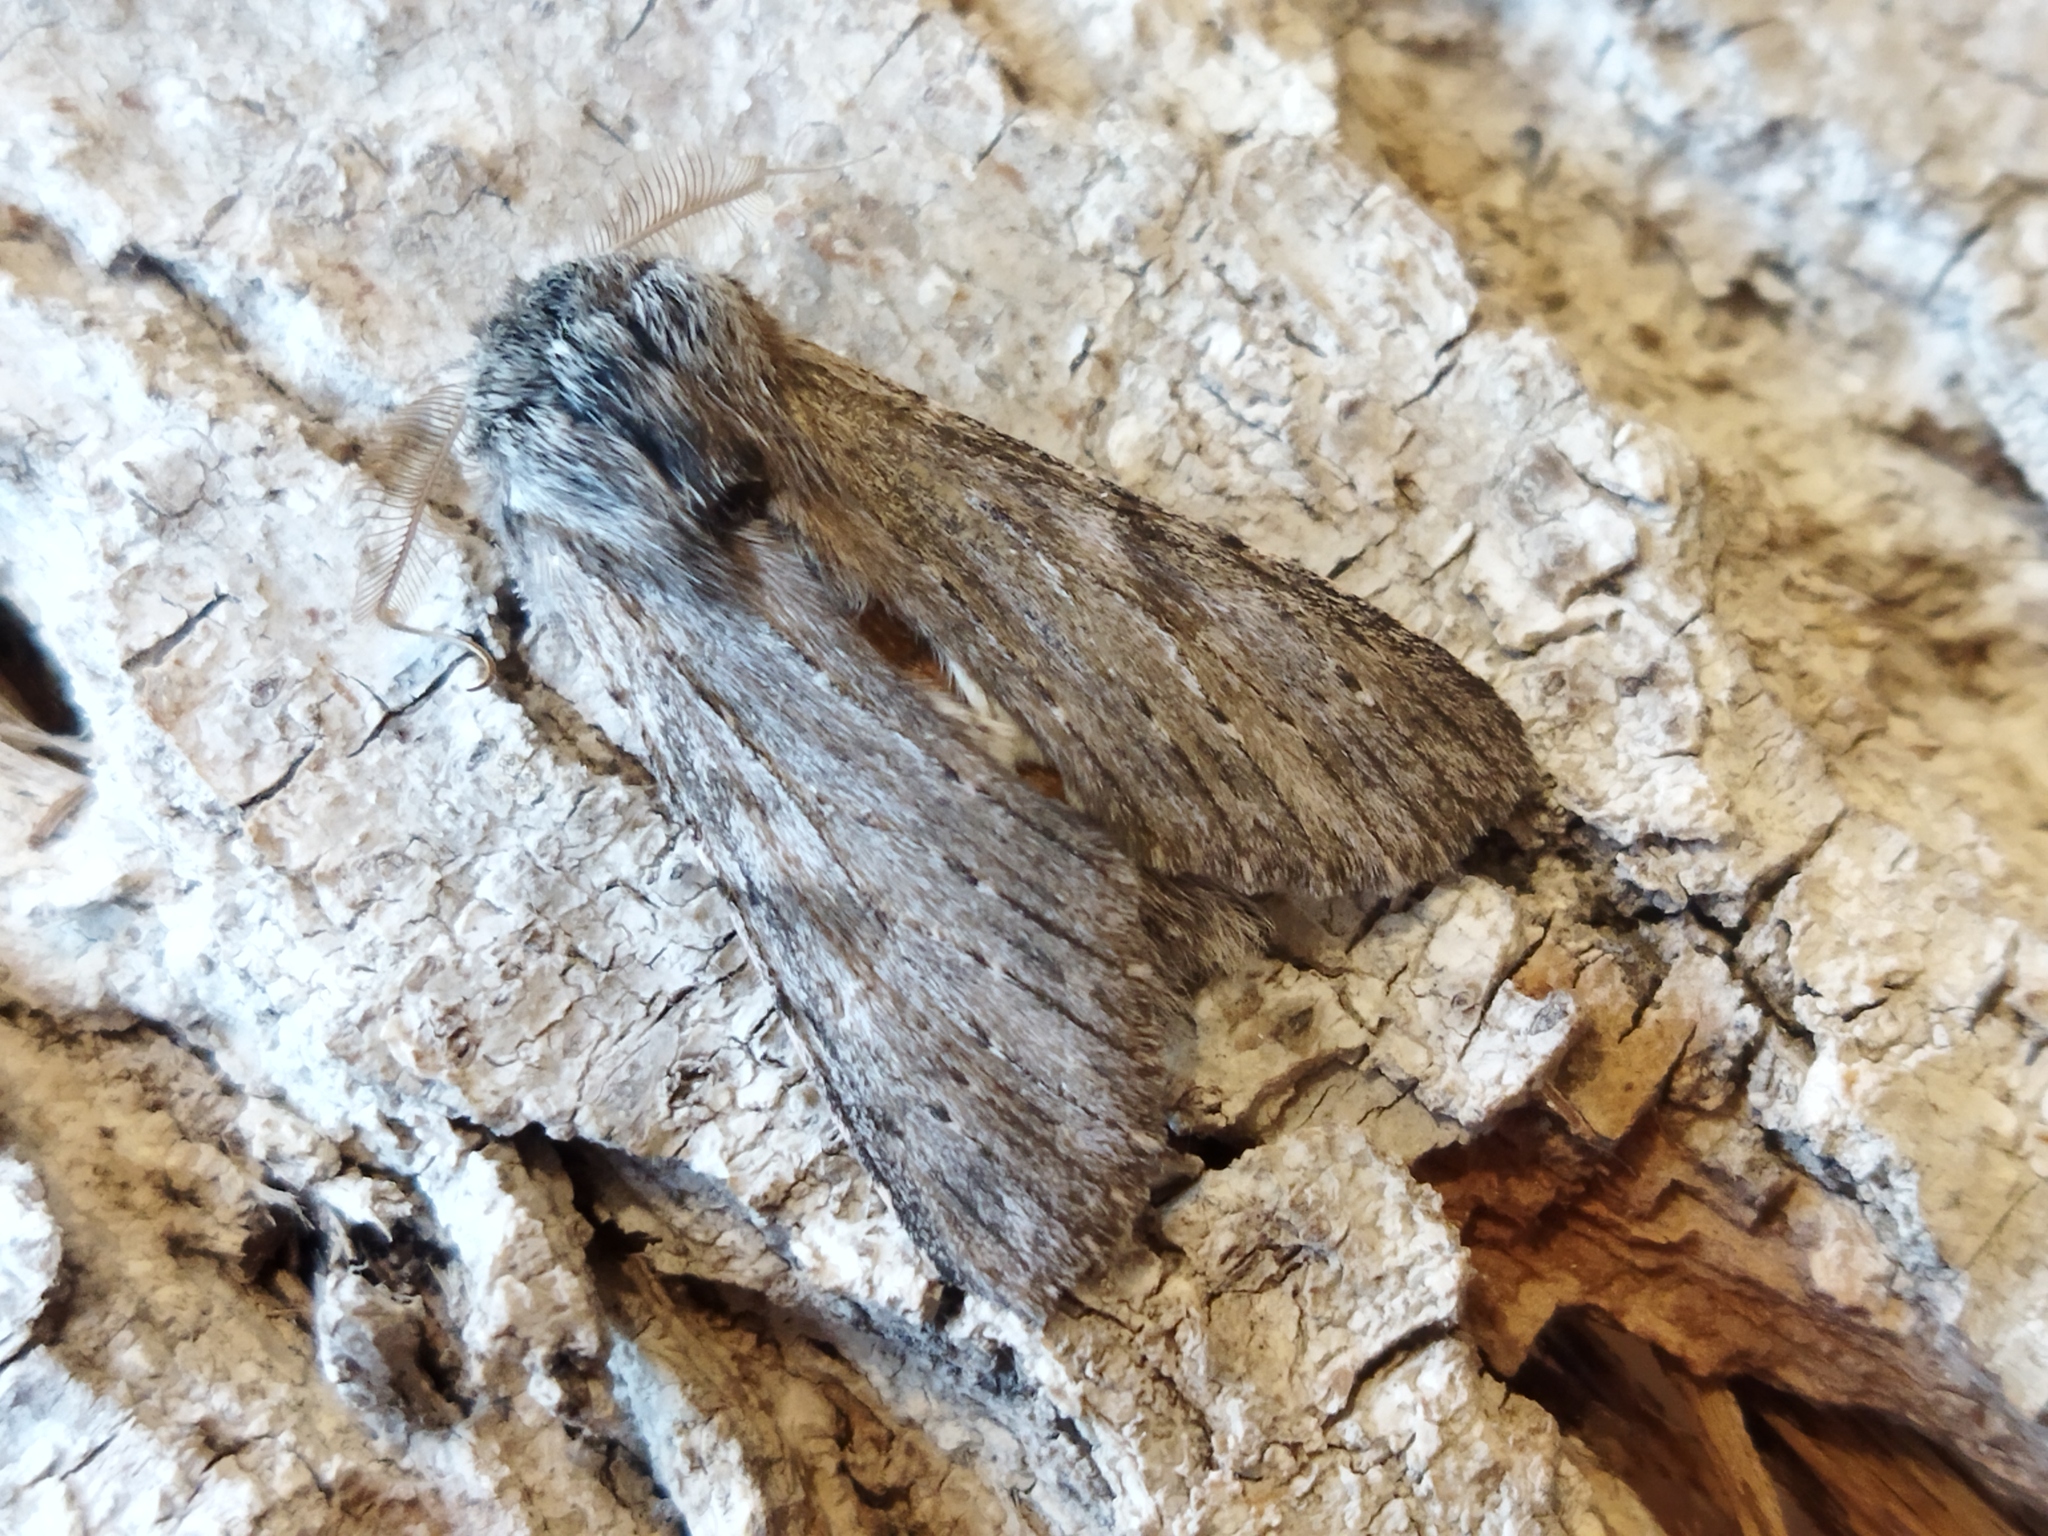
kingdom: Animalia
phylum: Arthropoda
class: Insecta
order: Lepidoptera
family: Notodontidae
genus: Dicranura
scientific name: Dicranura ulmi
